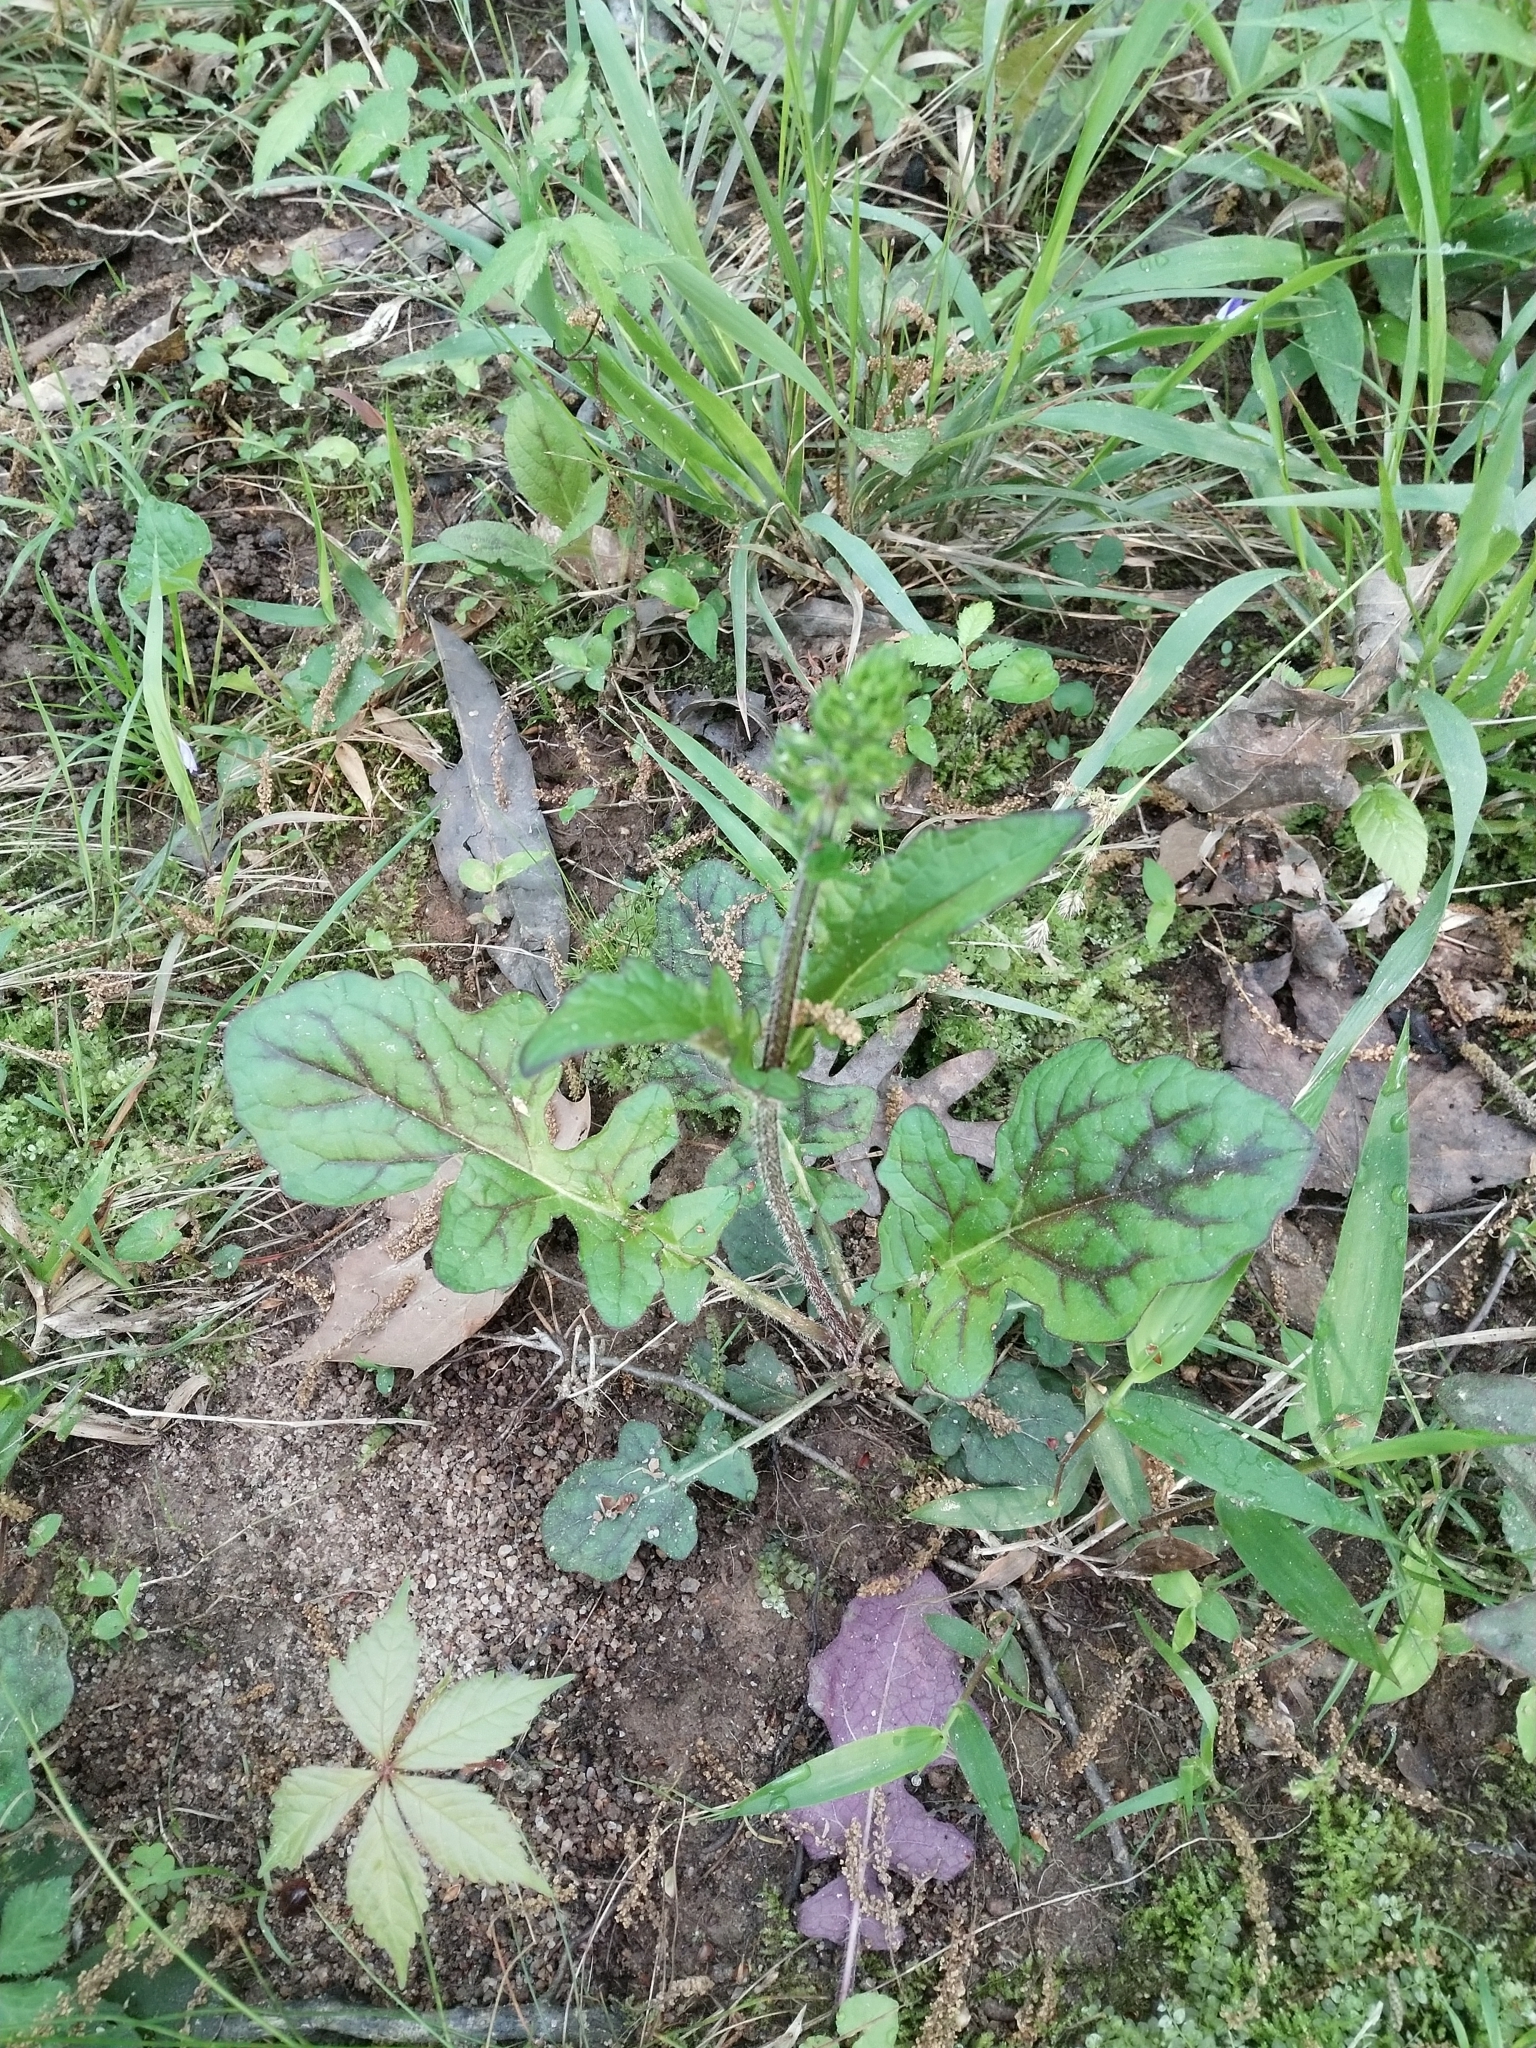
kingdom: Plantae
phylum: Tracheophyta
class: Magnoliopsida
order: Lamiales
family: Lamiaceae
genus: Salvia
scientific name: Salvia lyrata
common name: Cancerweed
